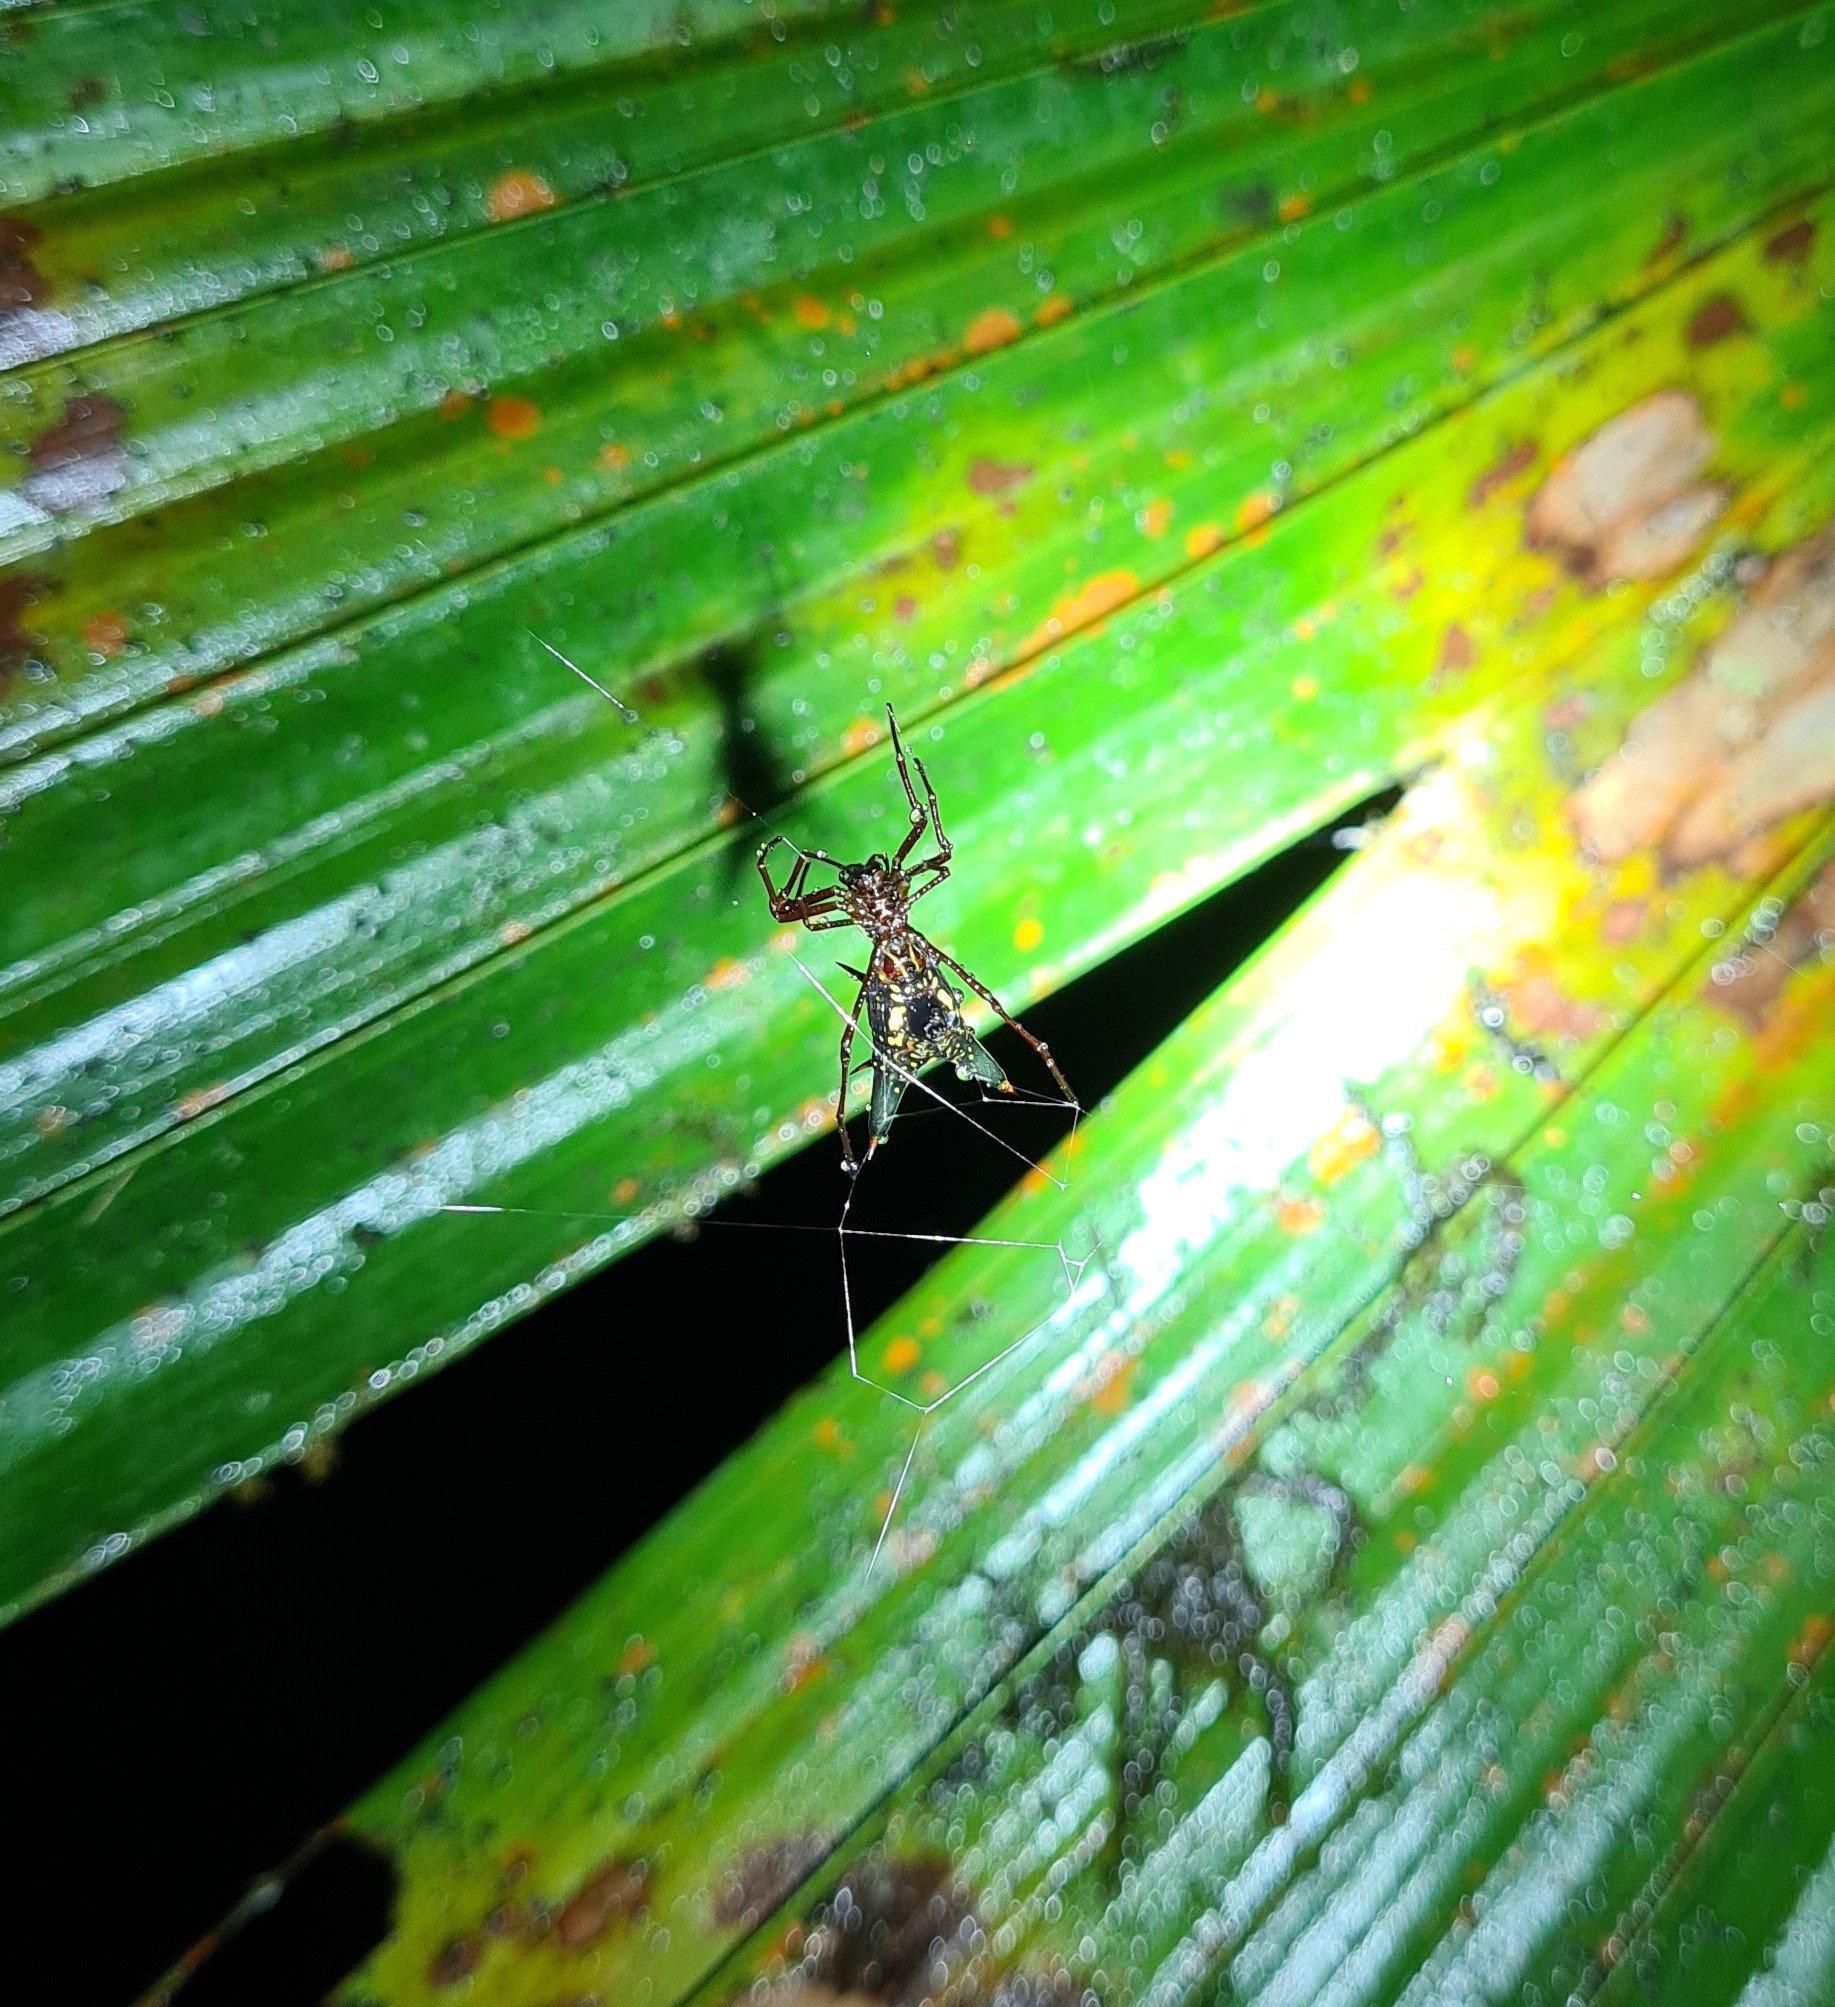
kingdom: Animalia
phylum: Arthropoda
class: Arachnida
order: Araneae
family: Araneidae
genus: Micrathena
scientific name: Micrathena pichincha
